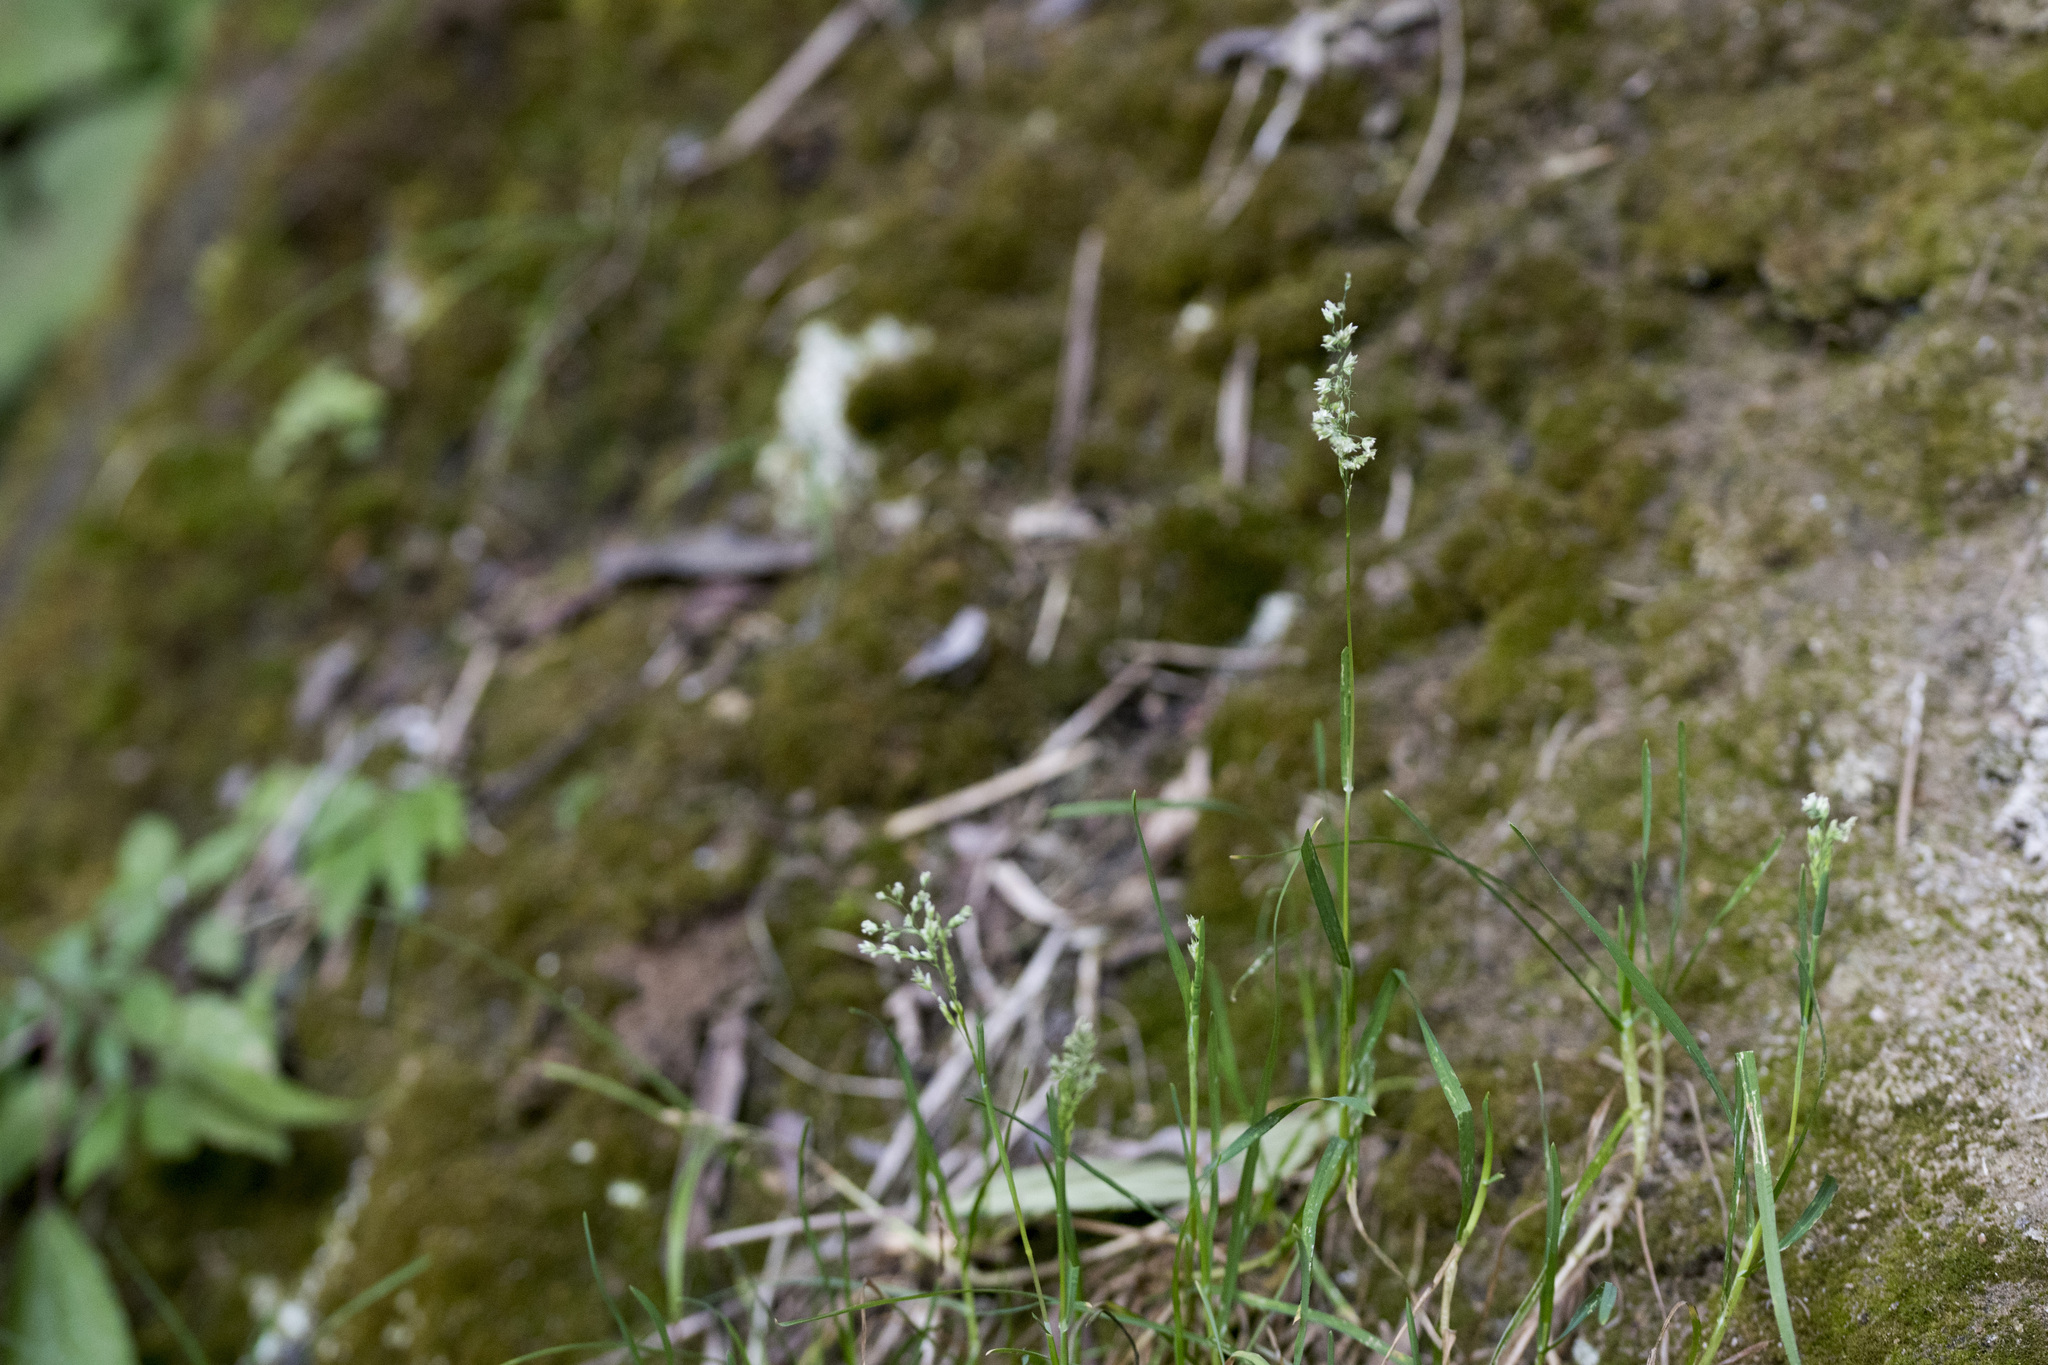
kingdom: Plantae
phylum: Tracheophyta
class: Liliopsida
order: Poales
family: Poaceae
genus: Poa
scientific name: Poa annua
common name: Annual bluegrass
